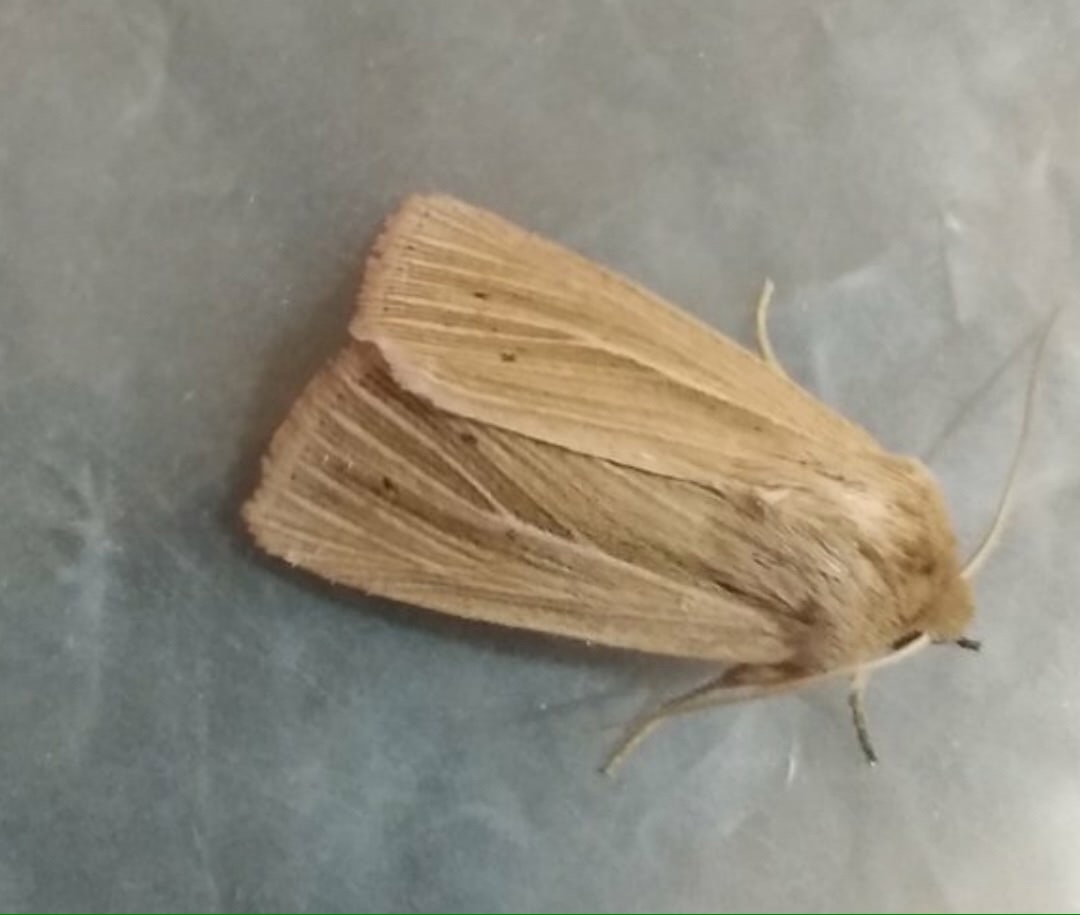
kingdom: Animalia
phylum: Arthropoda
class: Insecta
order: Lepidoptera
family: Noctuidae
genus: Mythimna
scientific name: Mythimna impura
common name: Smoky wainscot
